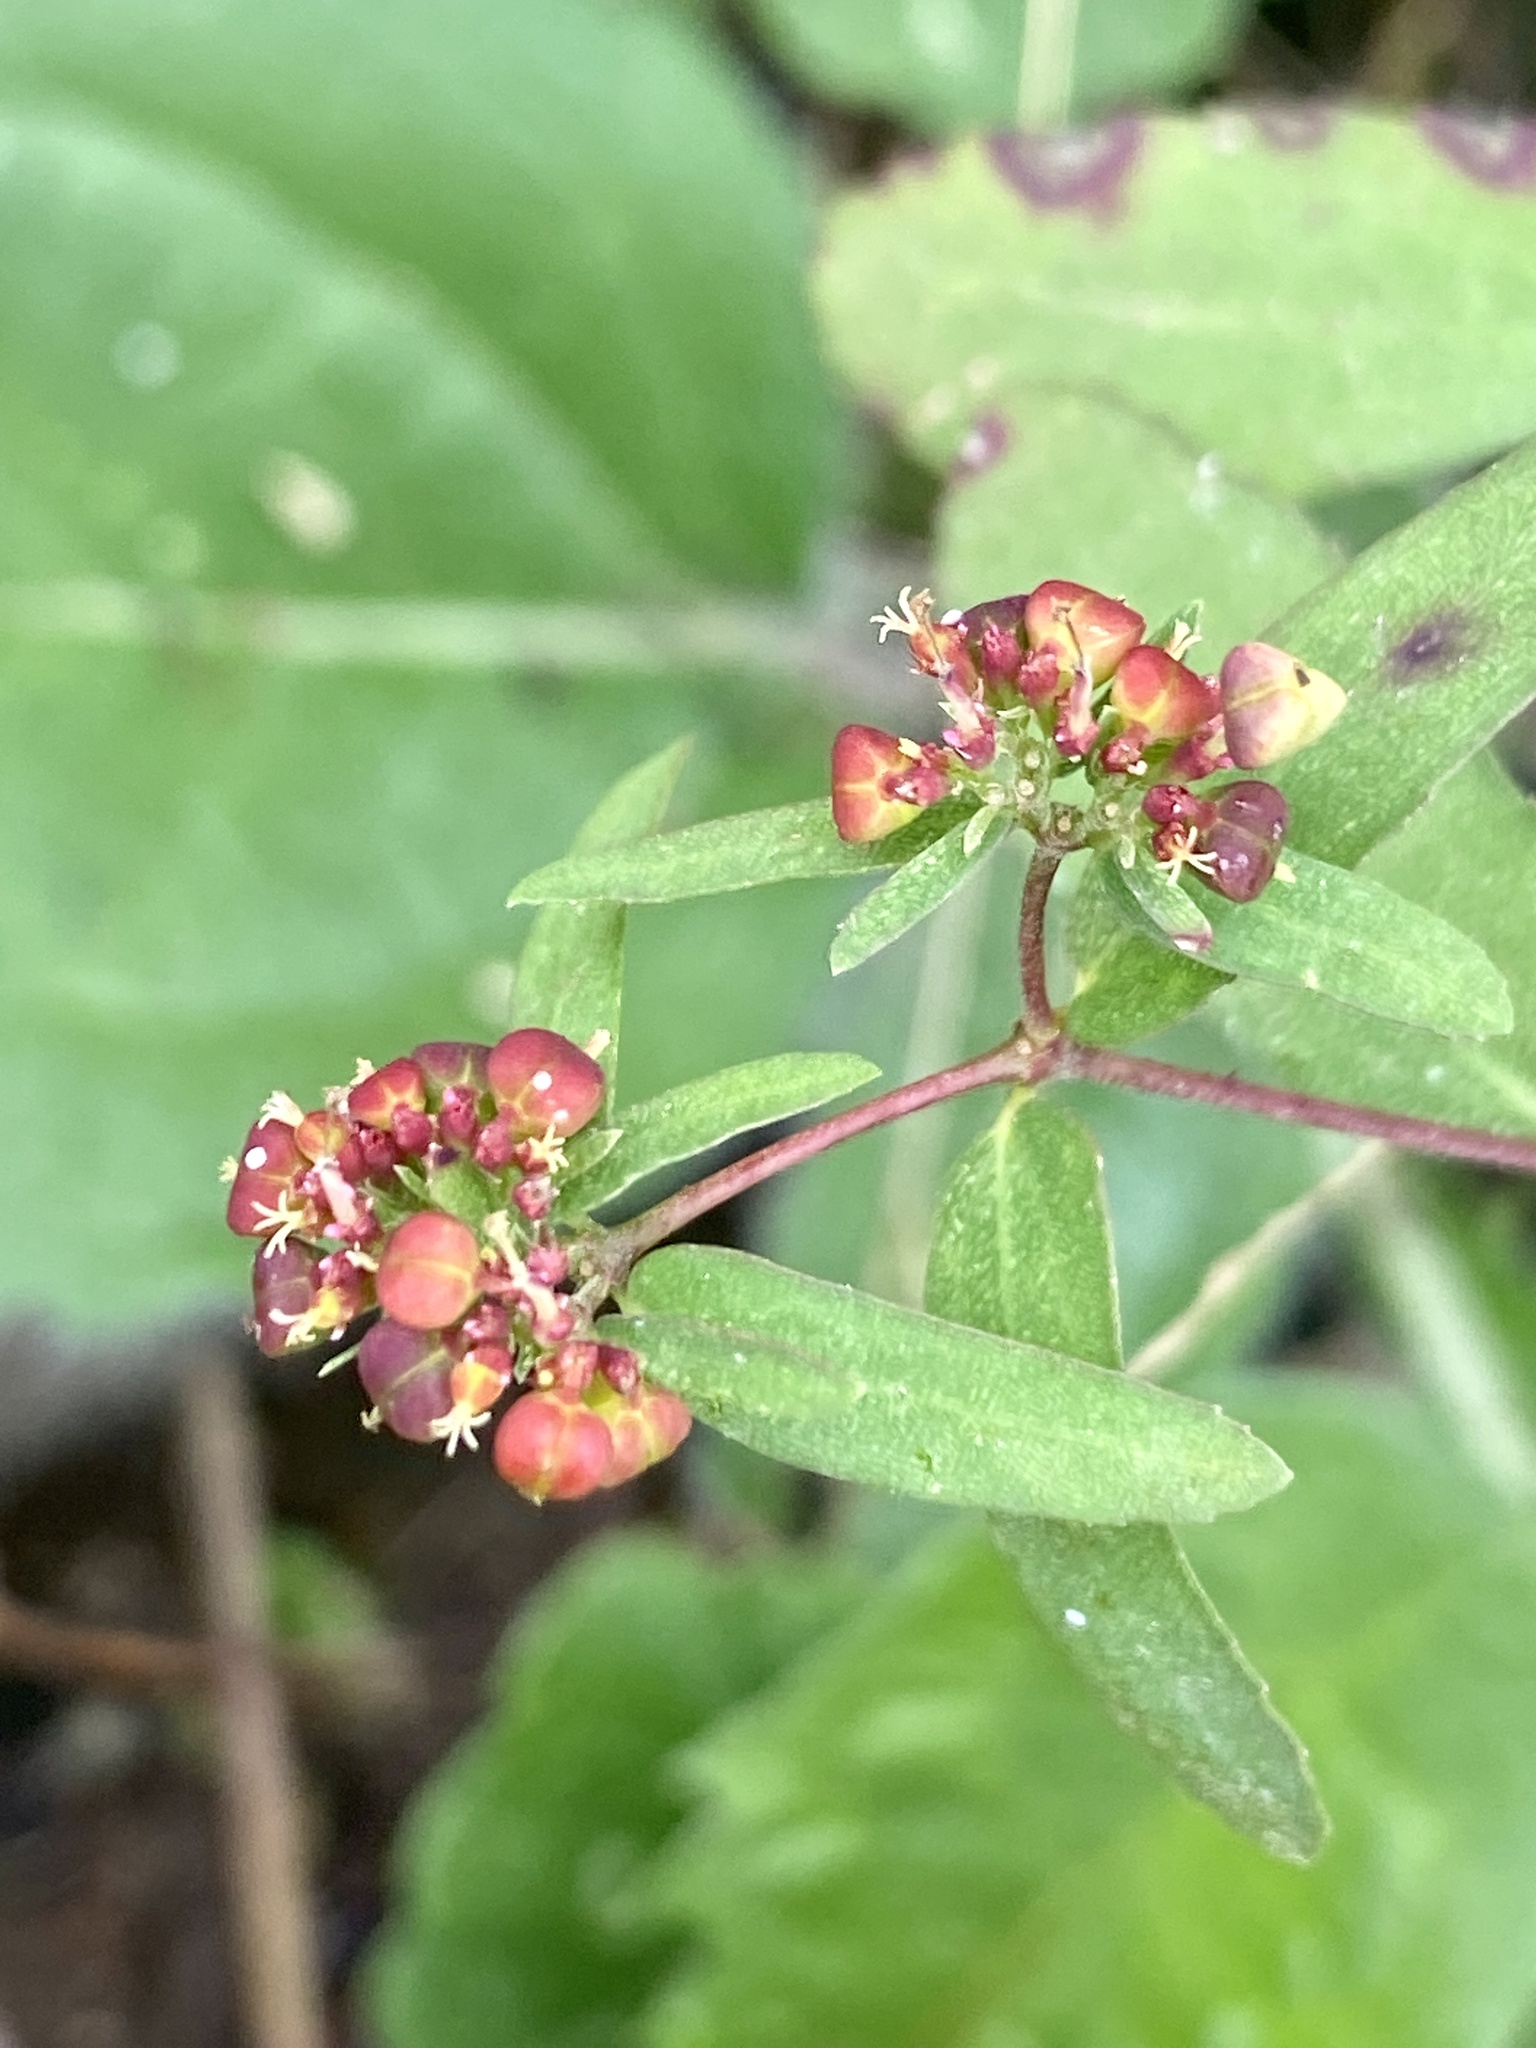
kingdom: Plantae
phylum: Tracheophyta
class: Magnoliopsida
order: Malpighiales
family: Euphorbiaceae
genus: Euphorbia
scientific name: Euphorbia nutans
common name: Eyebane
